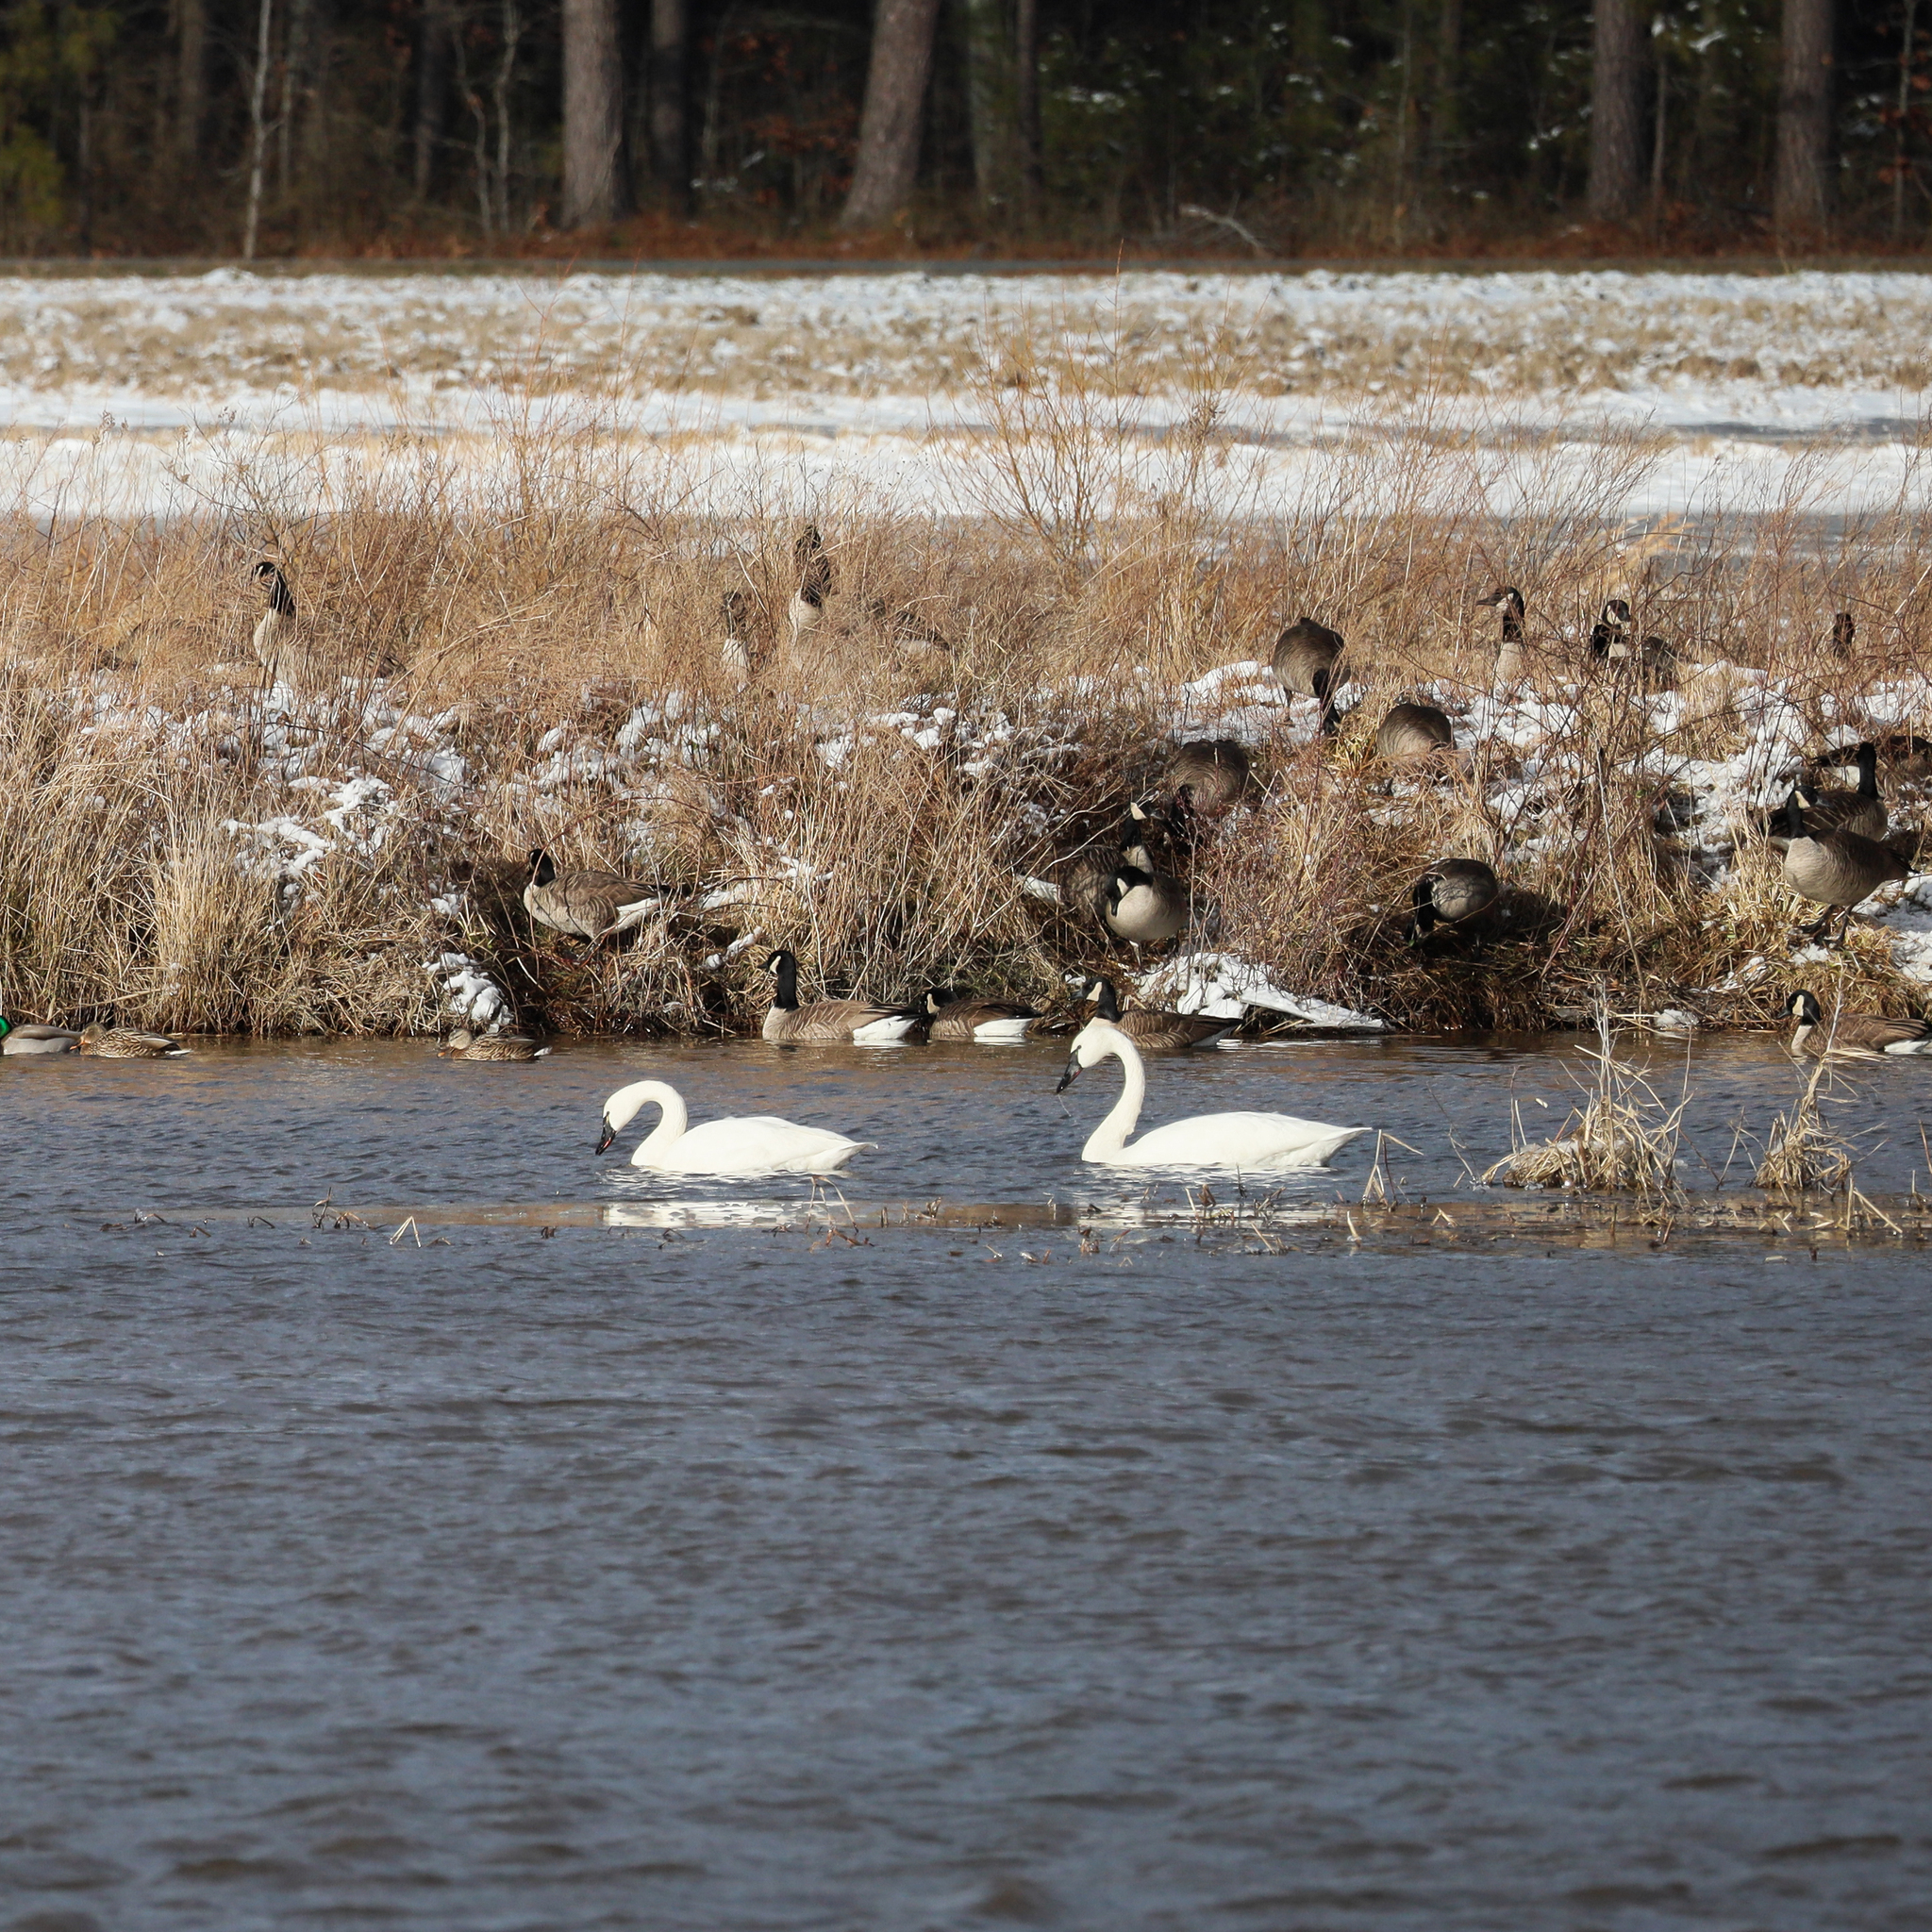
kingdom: Animalia
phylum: Chordata
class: Aves
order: Anseriformes
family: Anatidae
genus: Cygnus
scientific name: Cygnus columbianus
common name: Tundra swan
